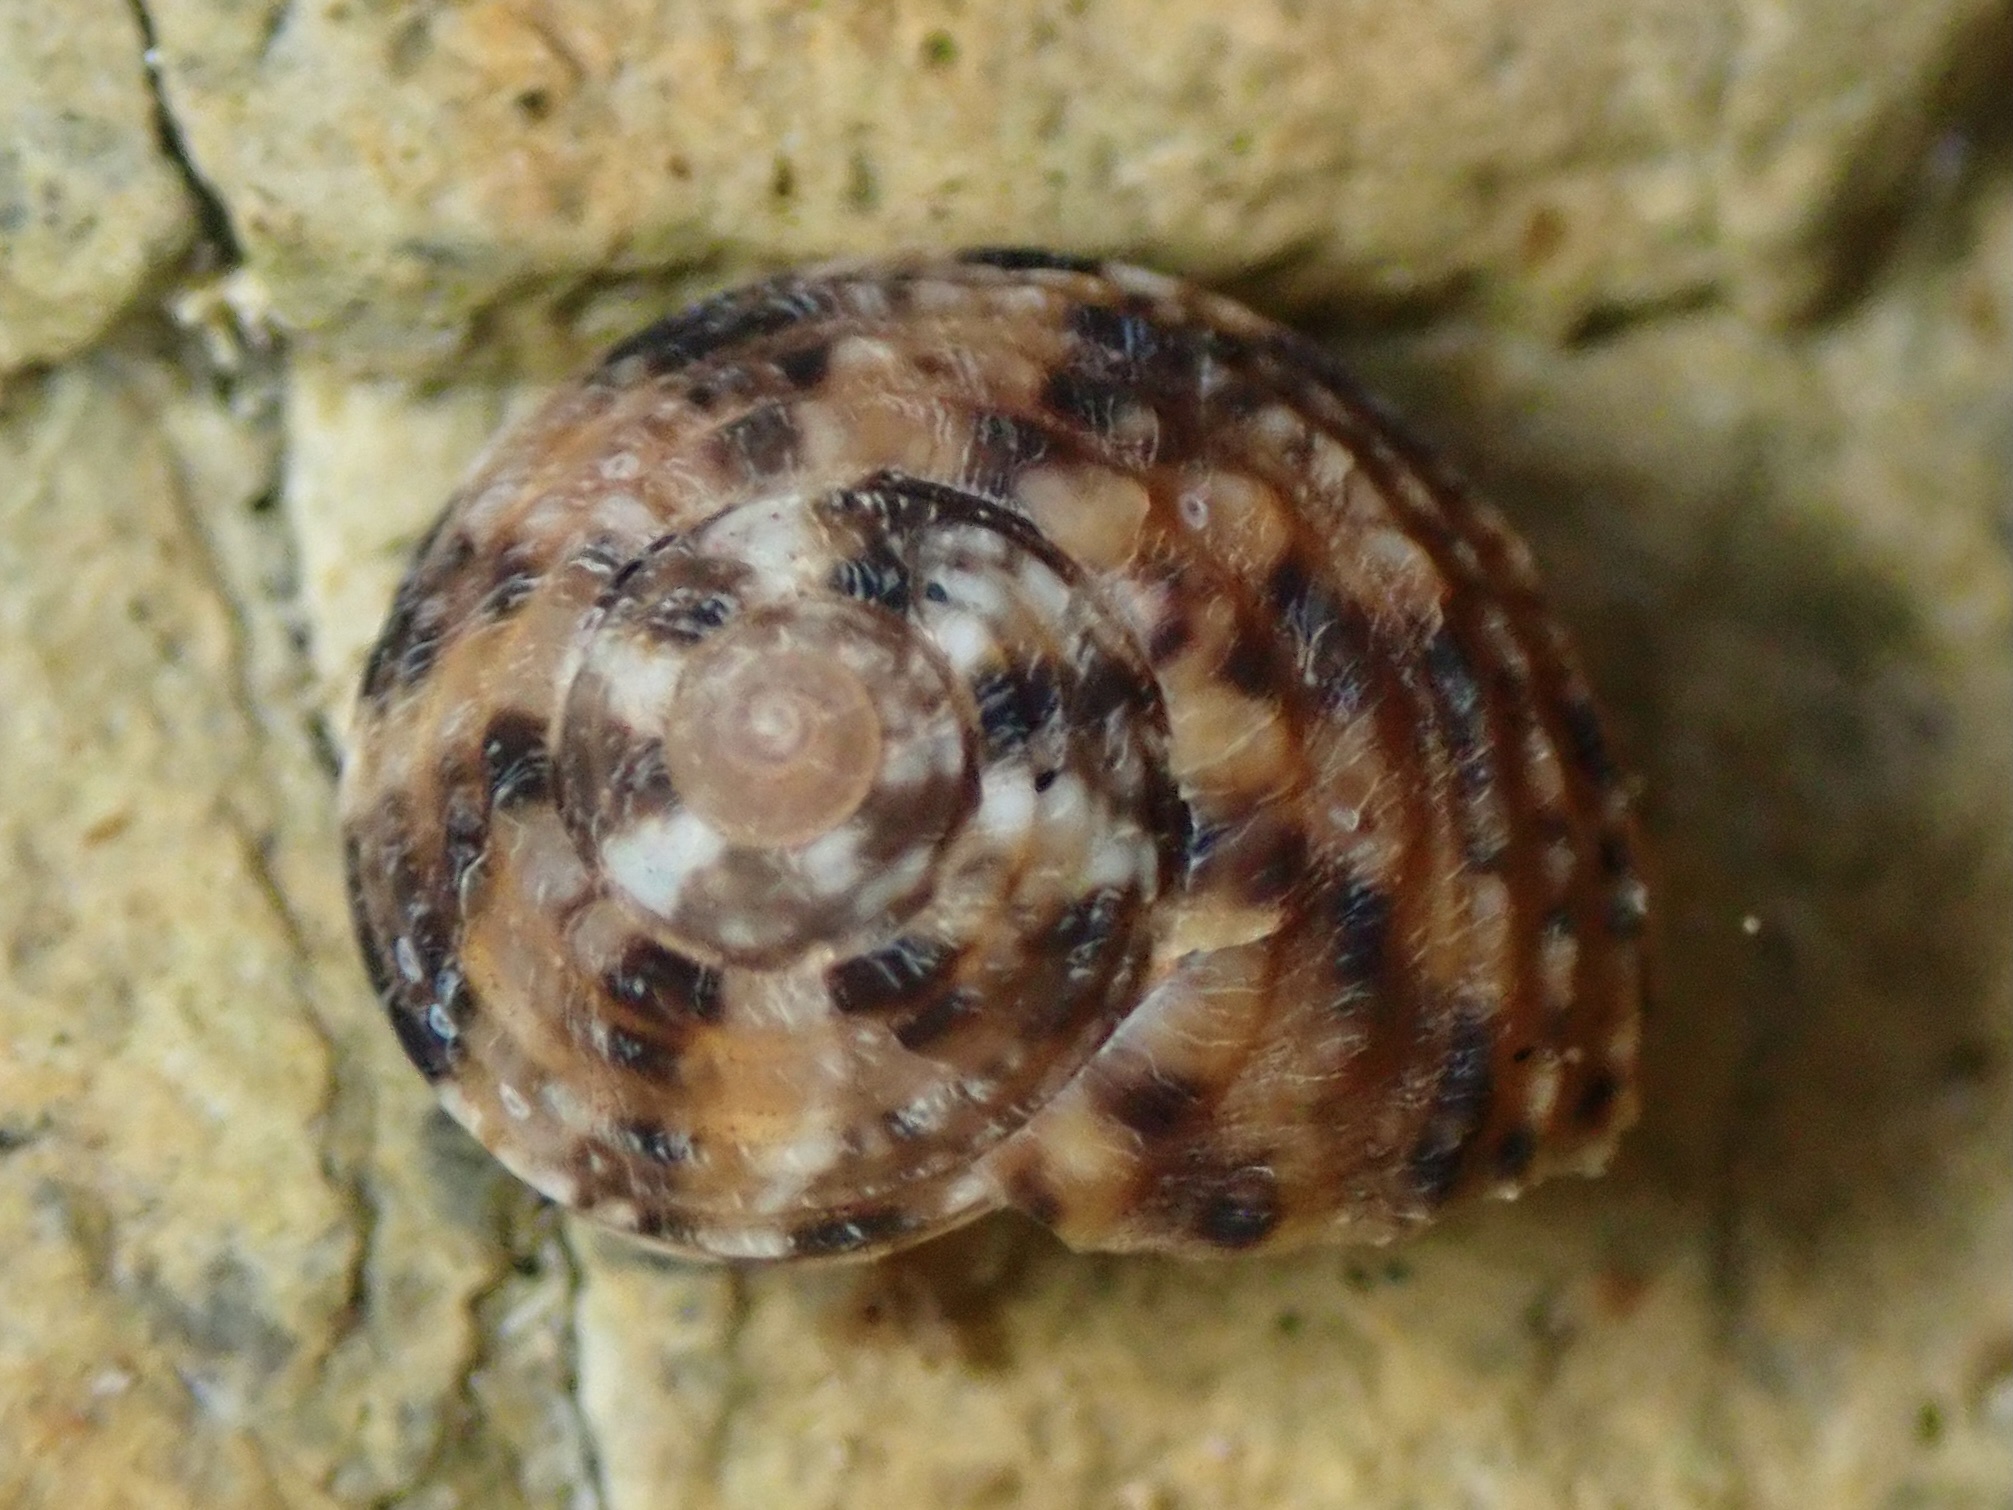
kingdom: Animalia
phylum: Mollusca
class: Gastropoda
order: Trochida
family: Tegulidae
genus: Tegula
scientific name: Tegula eiseni
